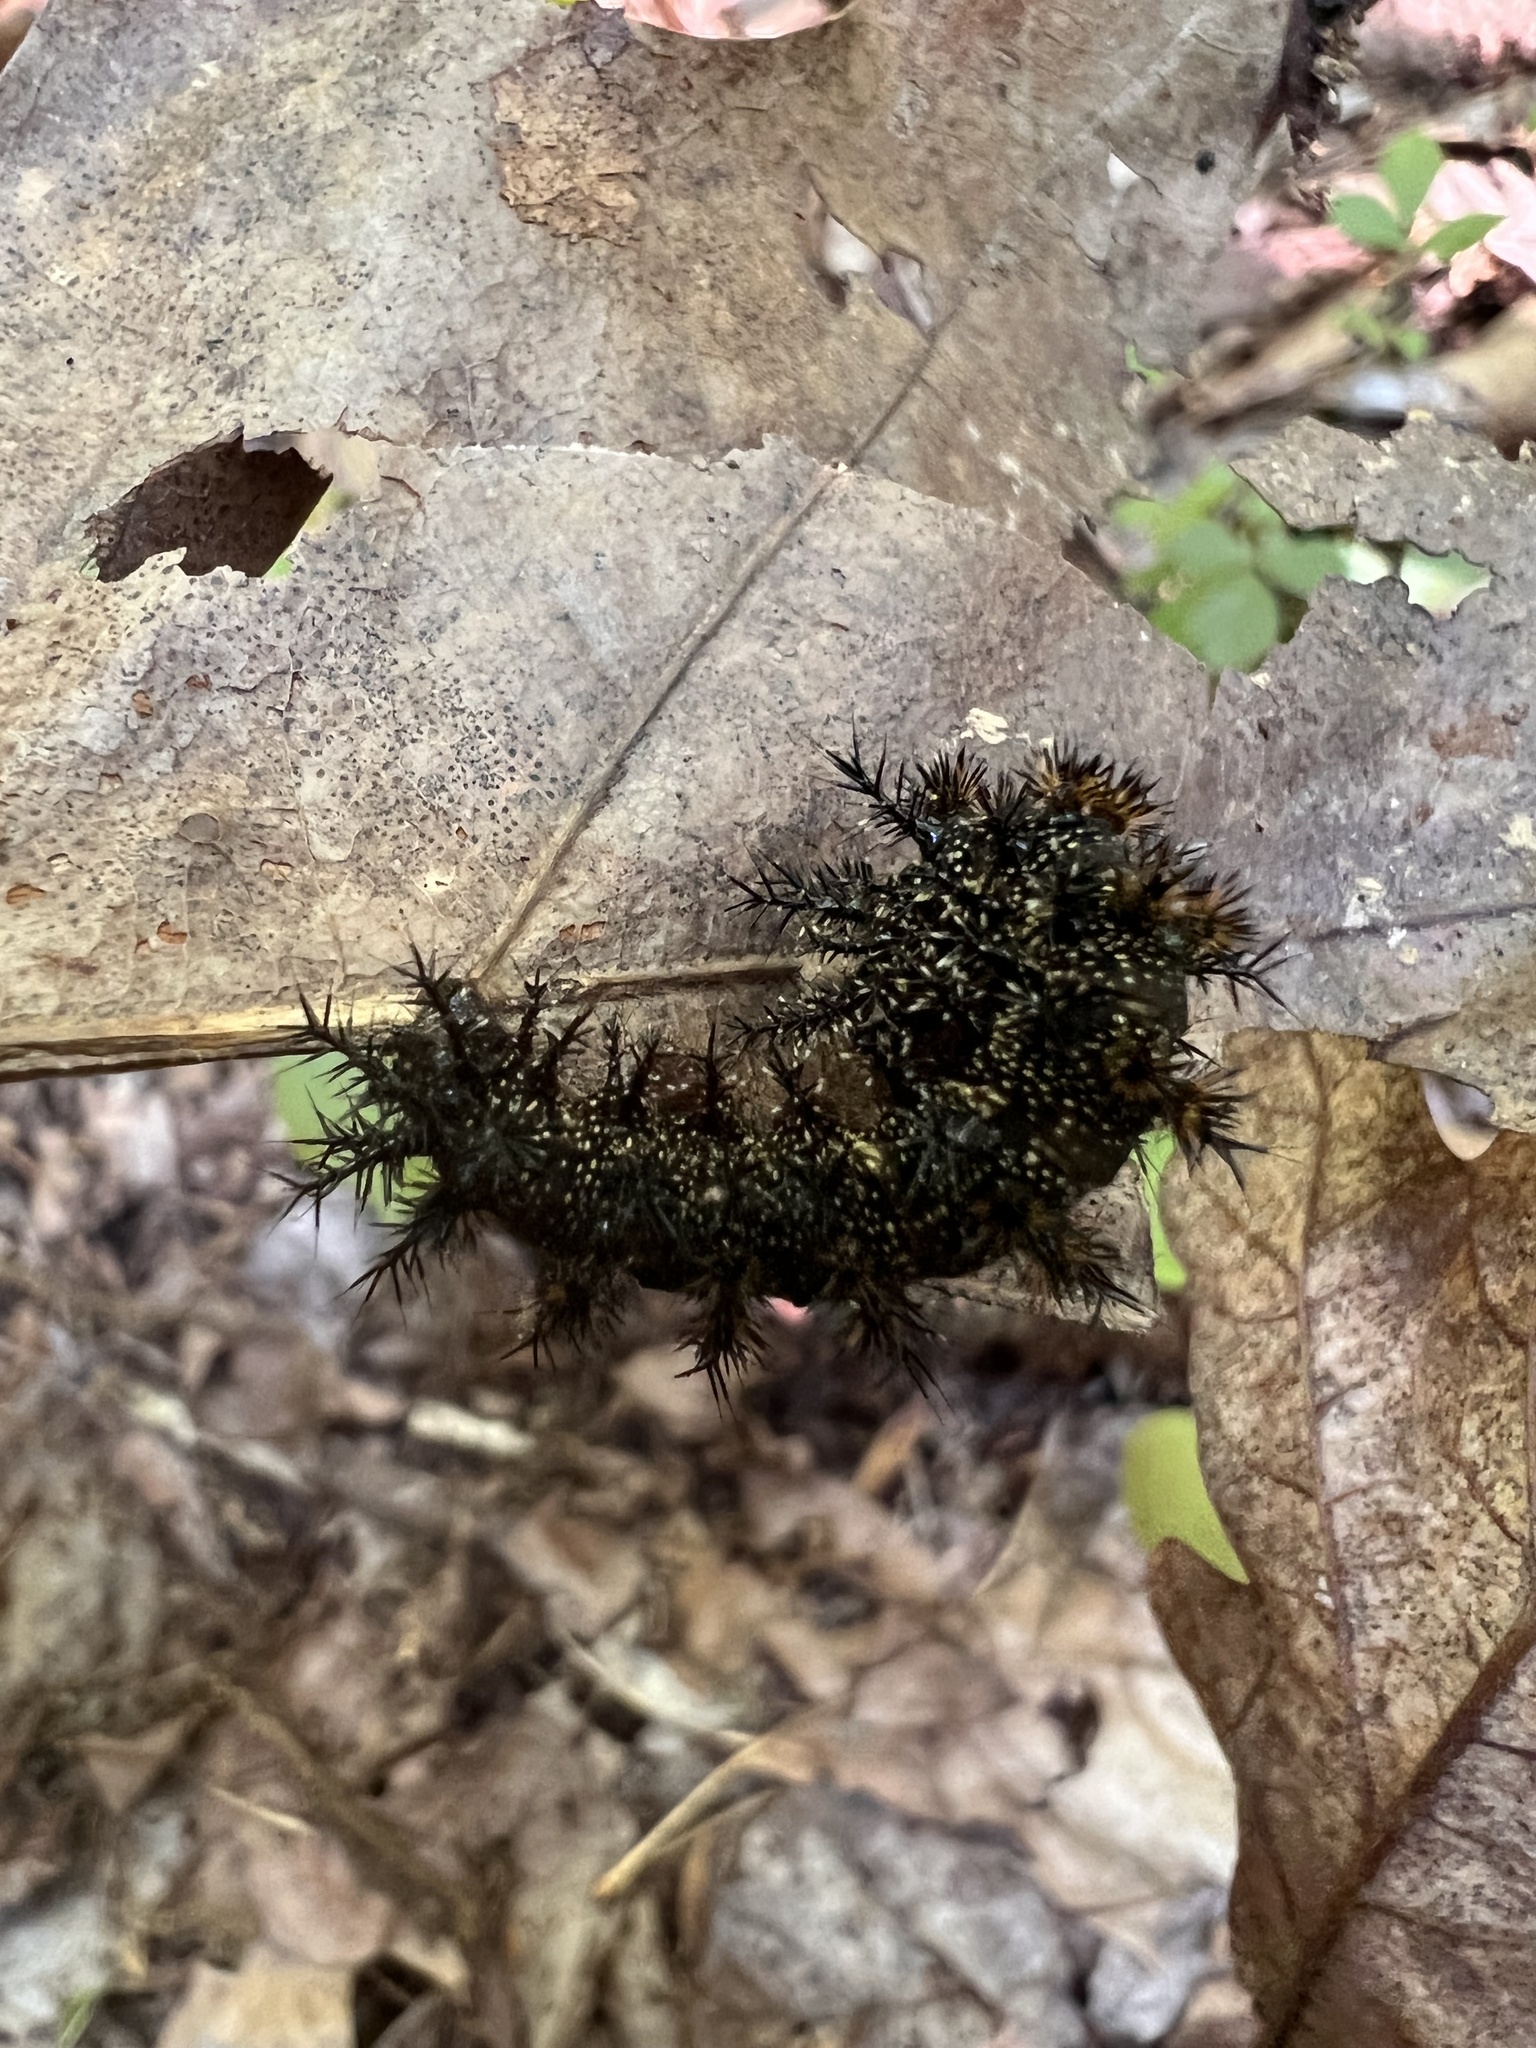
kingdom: Animalia
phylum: Arthropoda
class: Insecta
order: Lepidoptera
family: Saturniidae
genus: Hemileuca
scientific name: Hemileuca maia
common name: Eastern buckmoth
